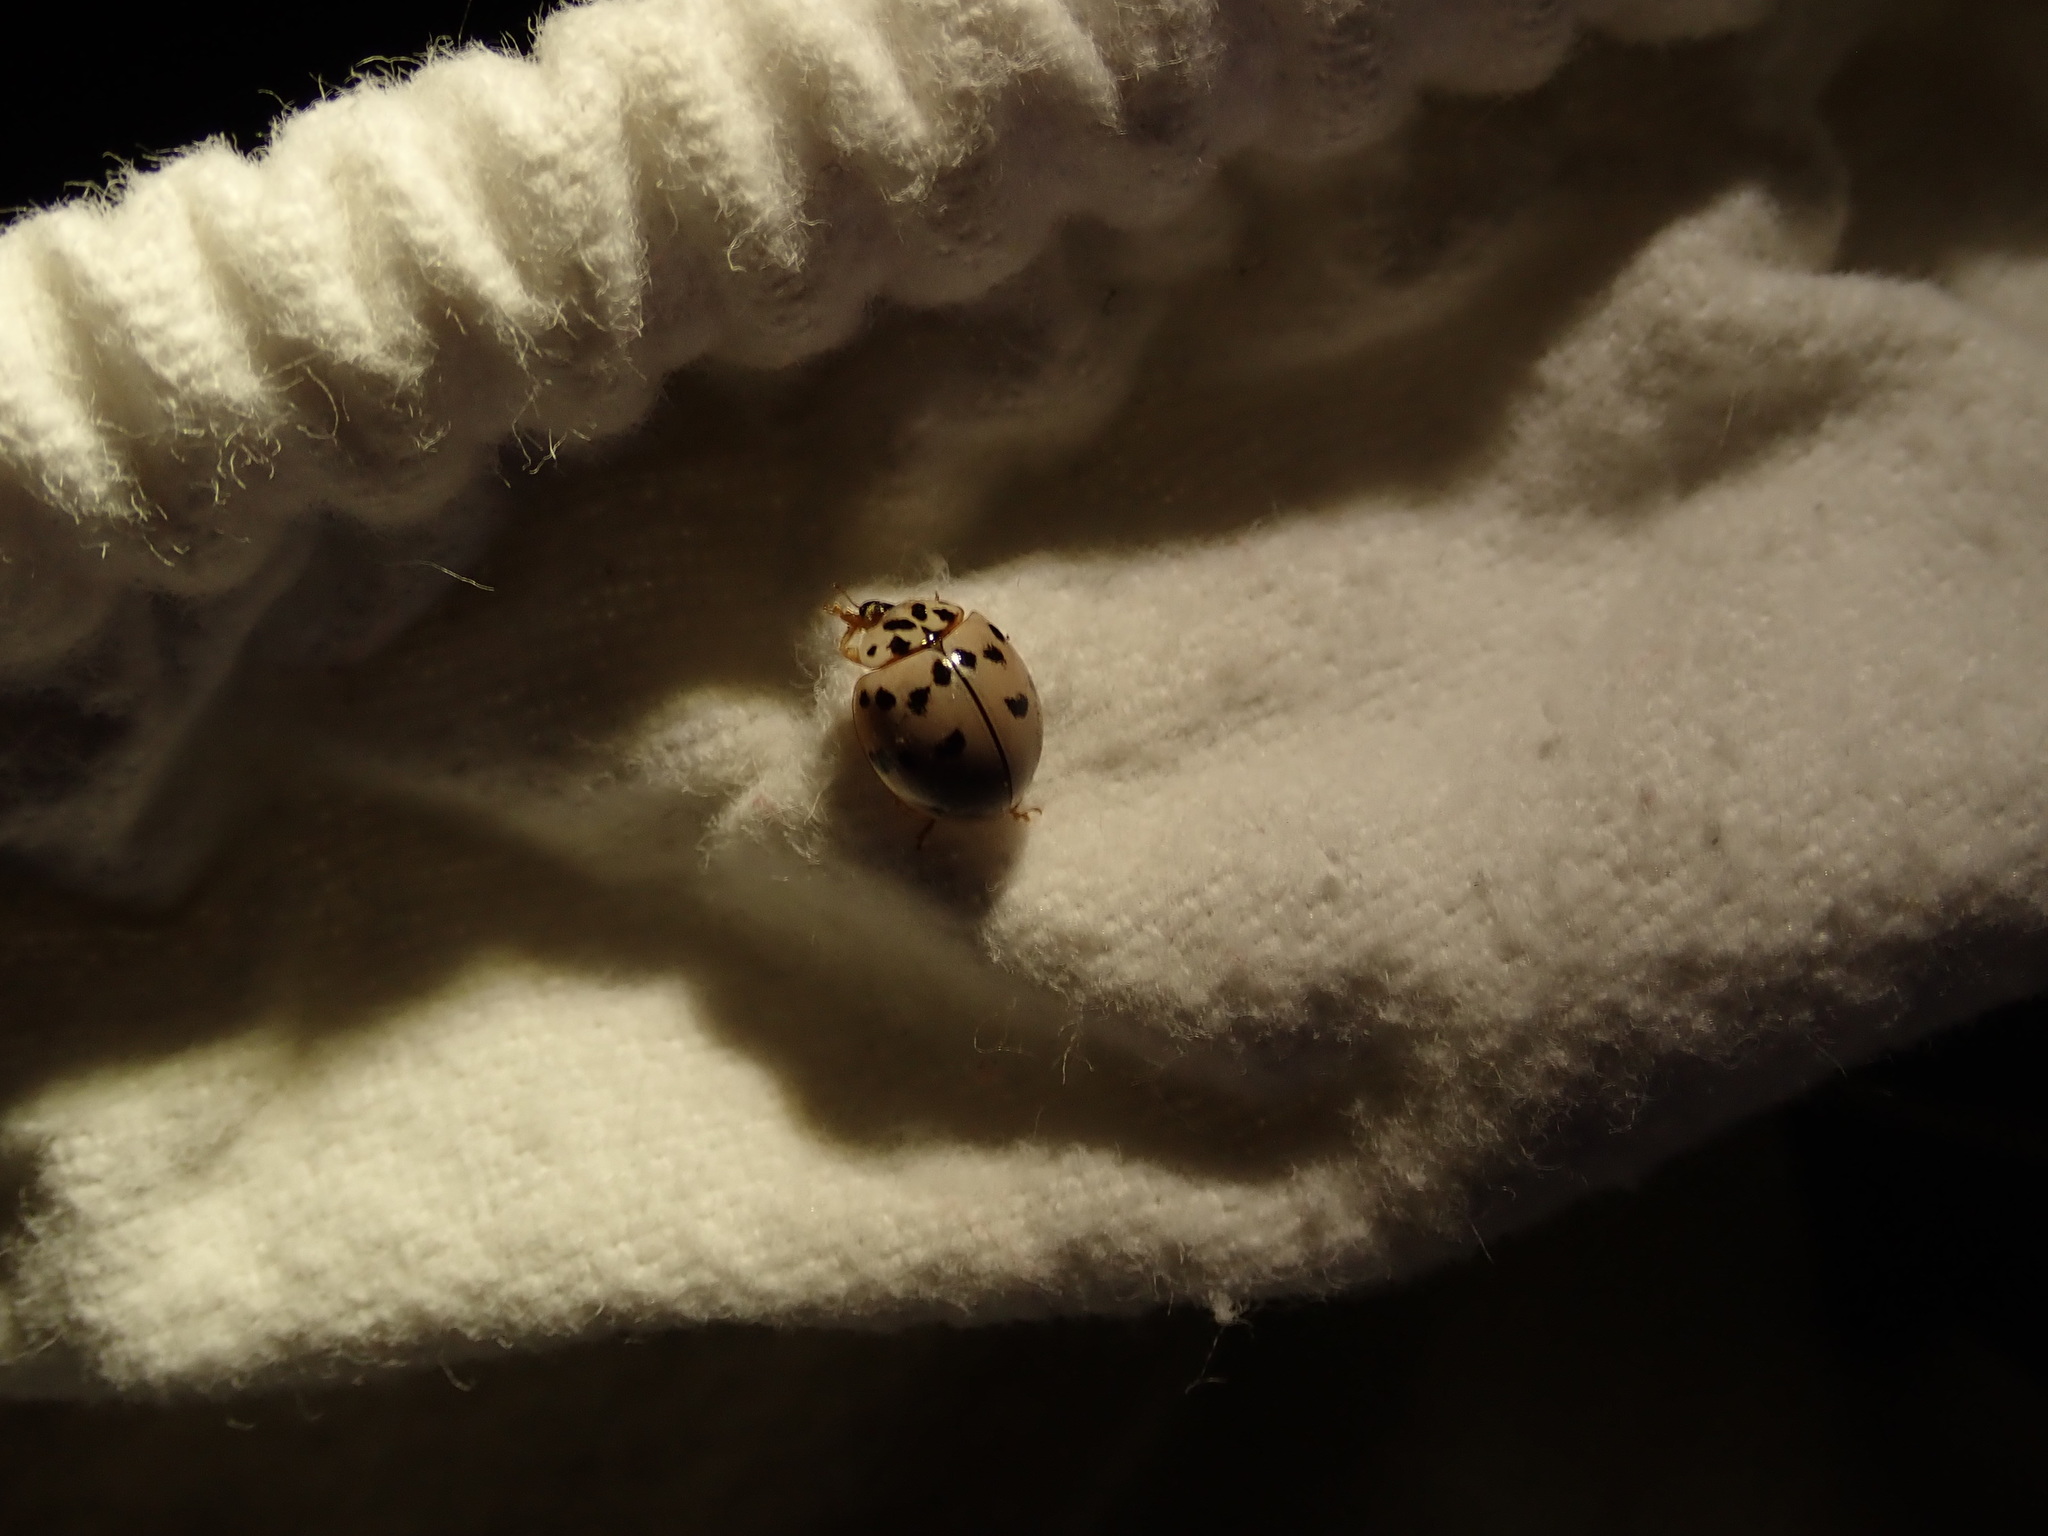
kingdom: Animalia
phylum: Arthropoda
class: Insecta
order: Coleoptera
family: Coccinellidae
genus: Olla
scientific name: Olla v-nigrum
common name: Ashy gray lady beetle
